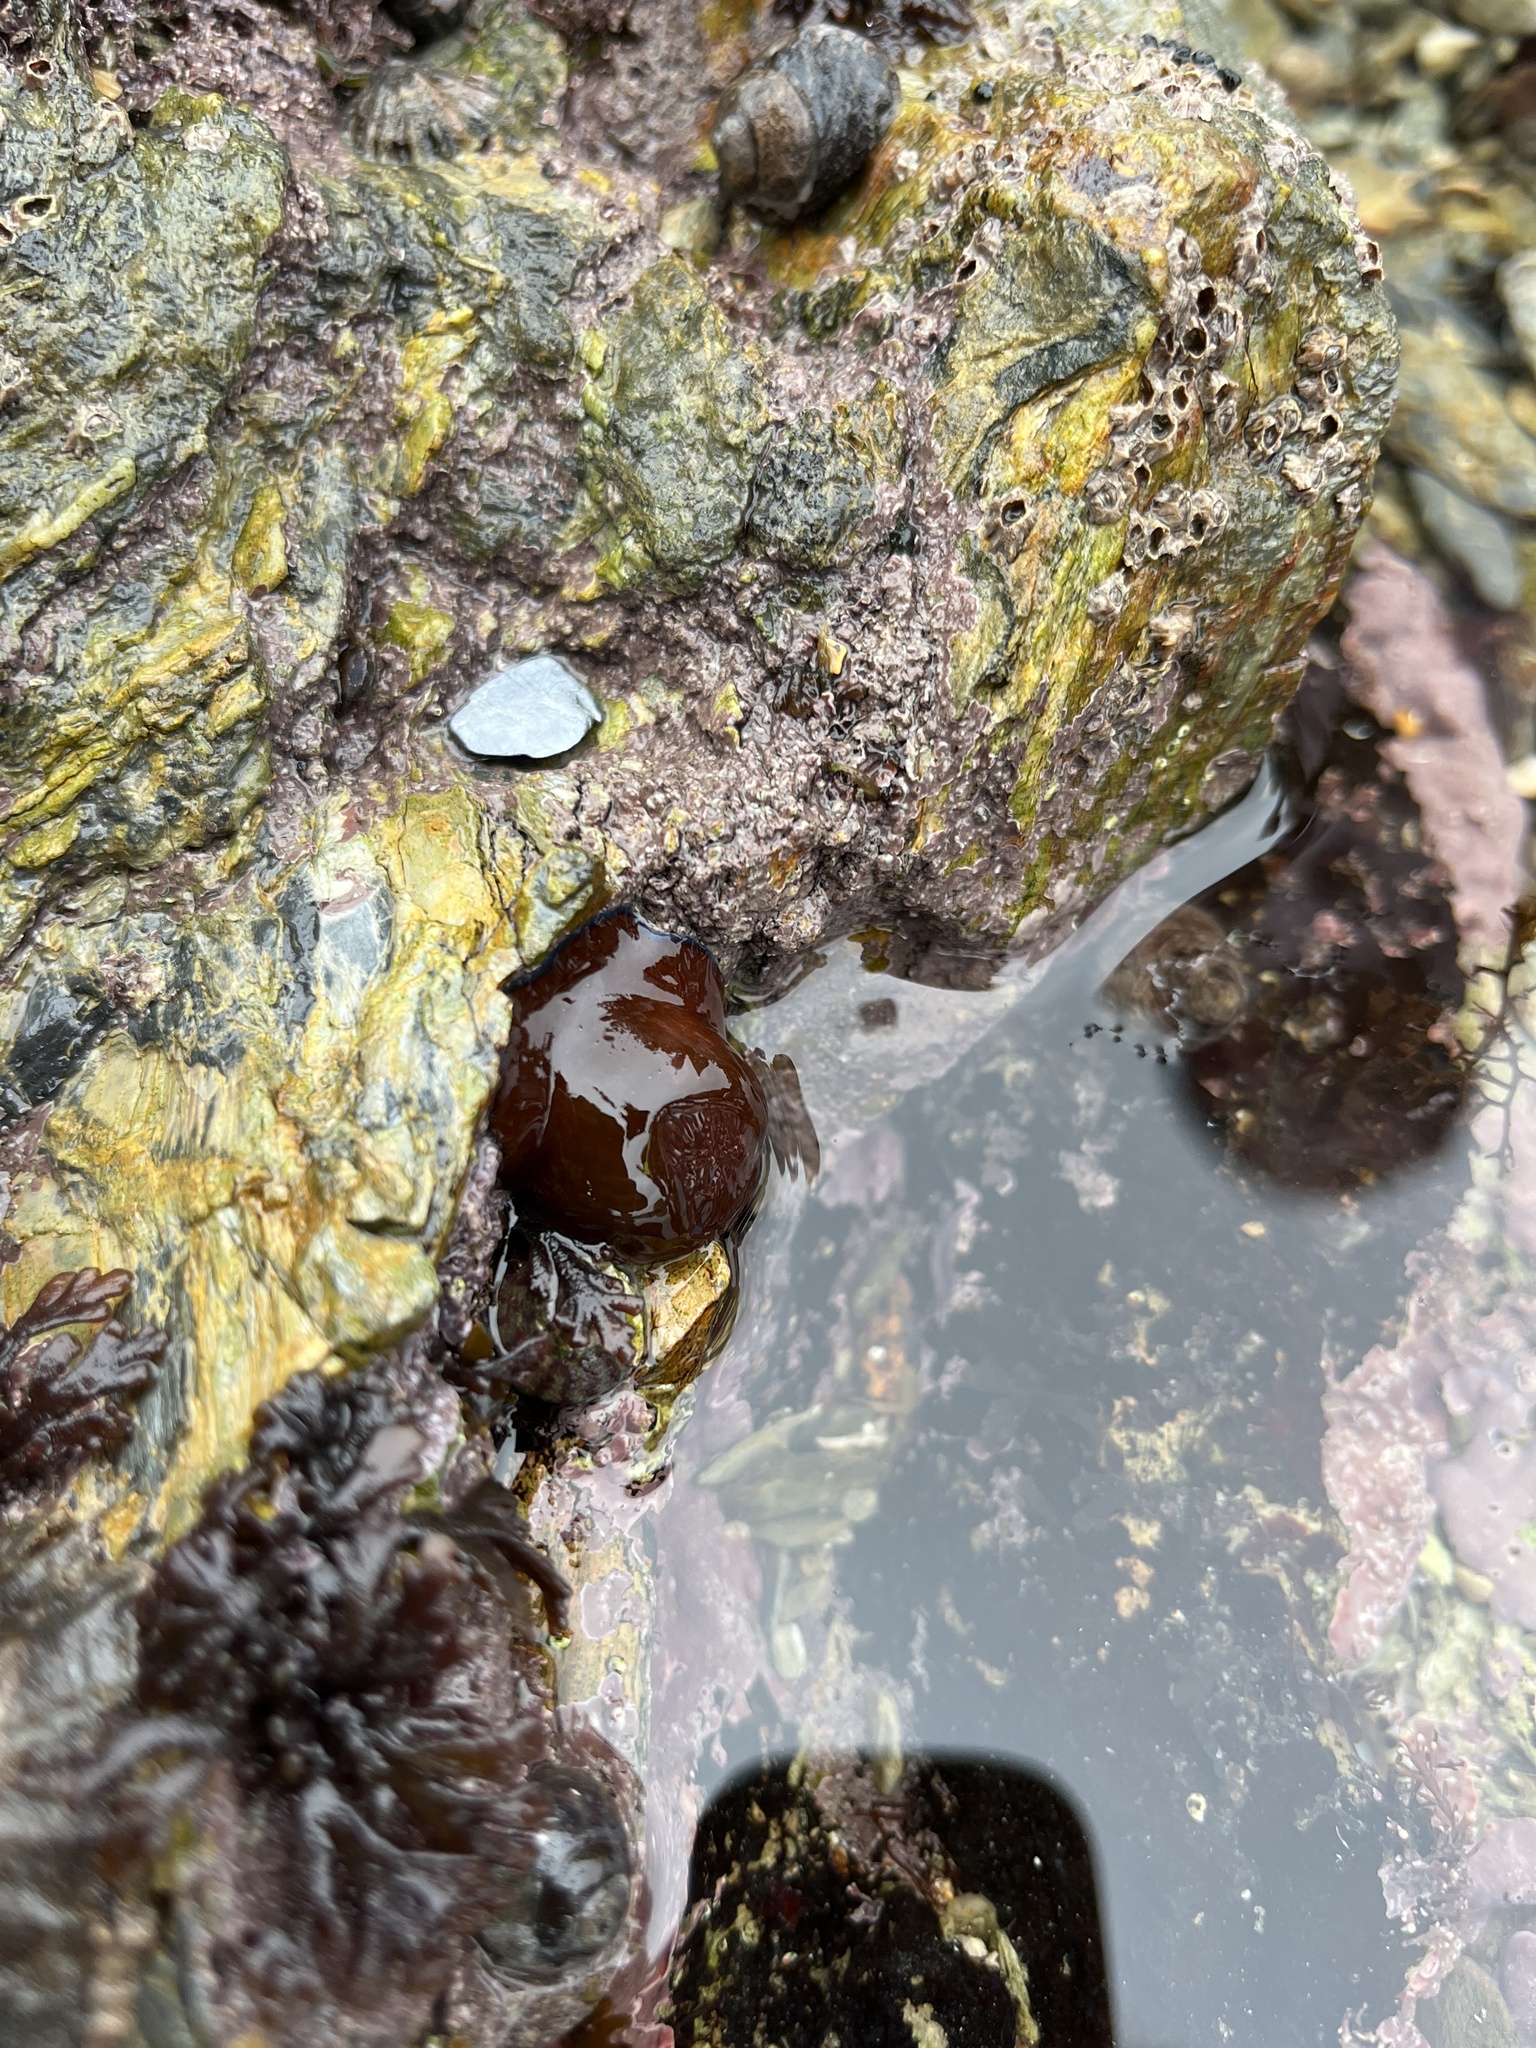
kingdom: Animalia
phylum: Cnidaria
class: Anthozoa
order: Actiniaria
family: Actiniidae
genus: Actinia
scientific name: Actinia equina
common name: Beadlet anemone
